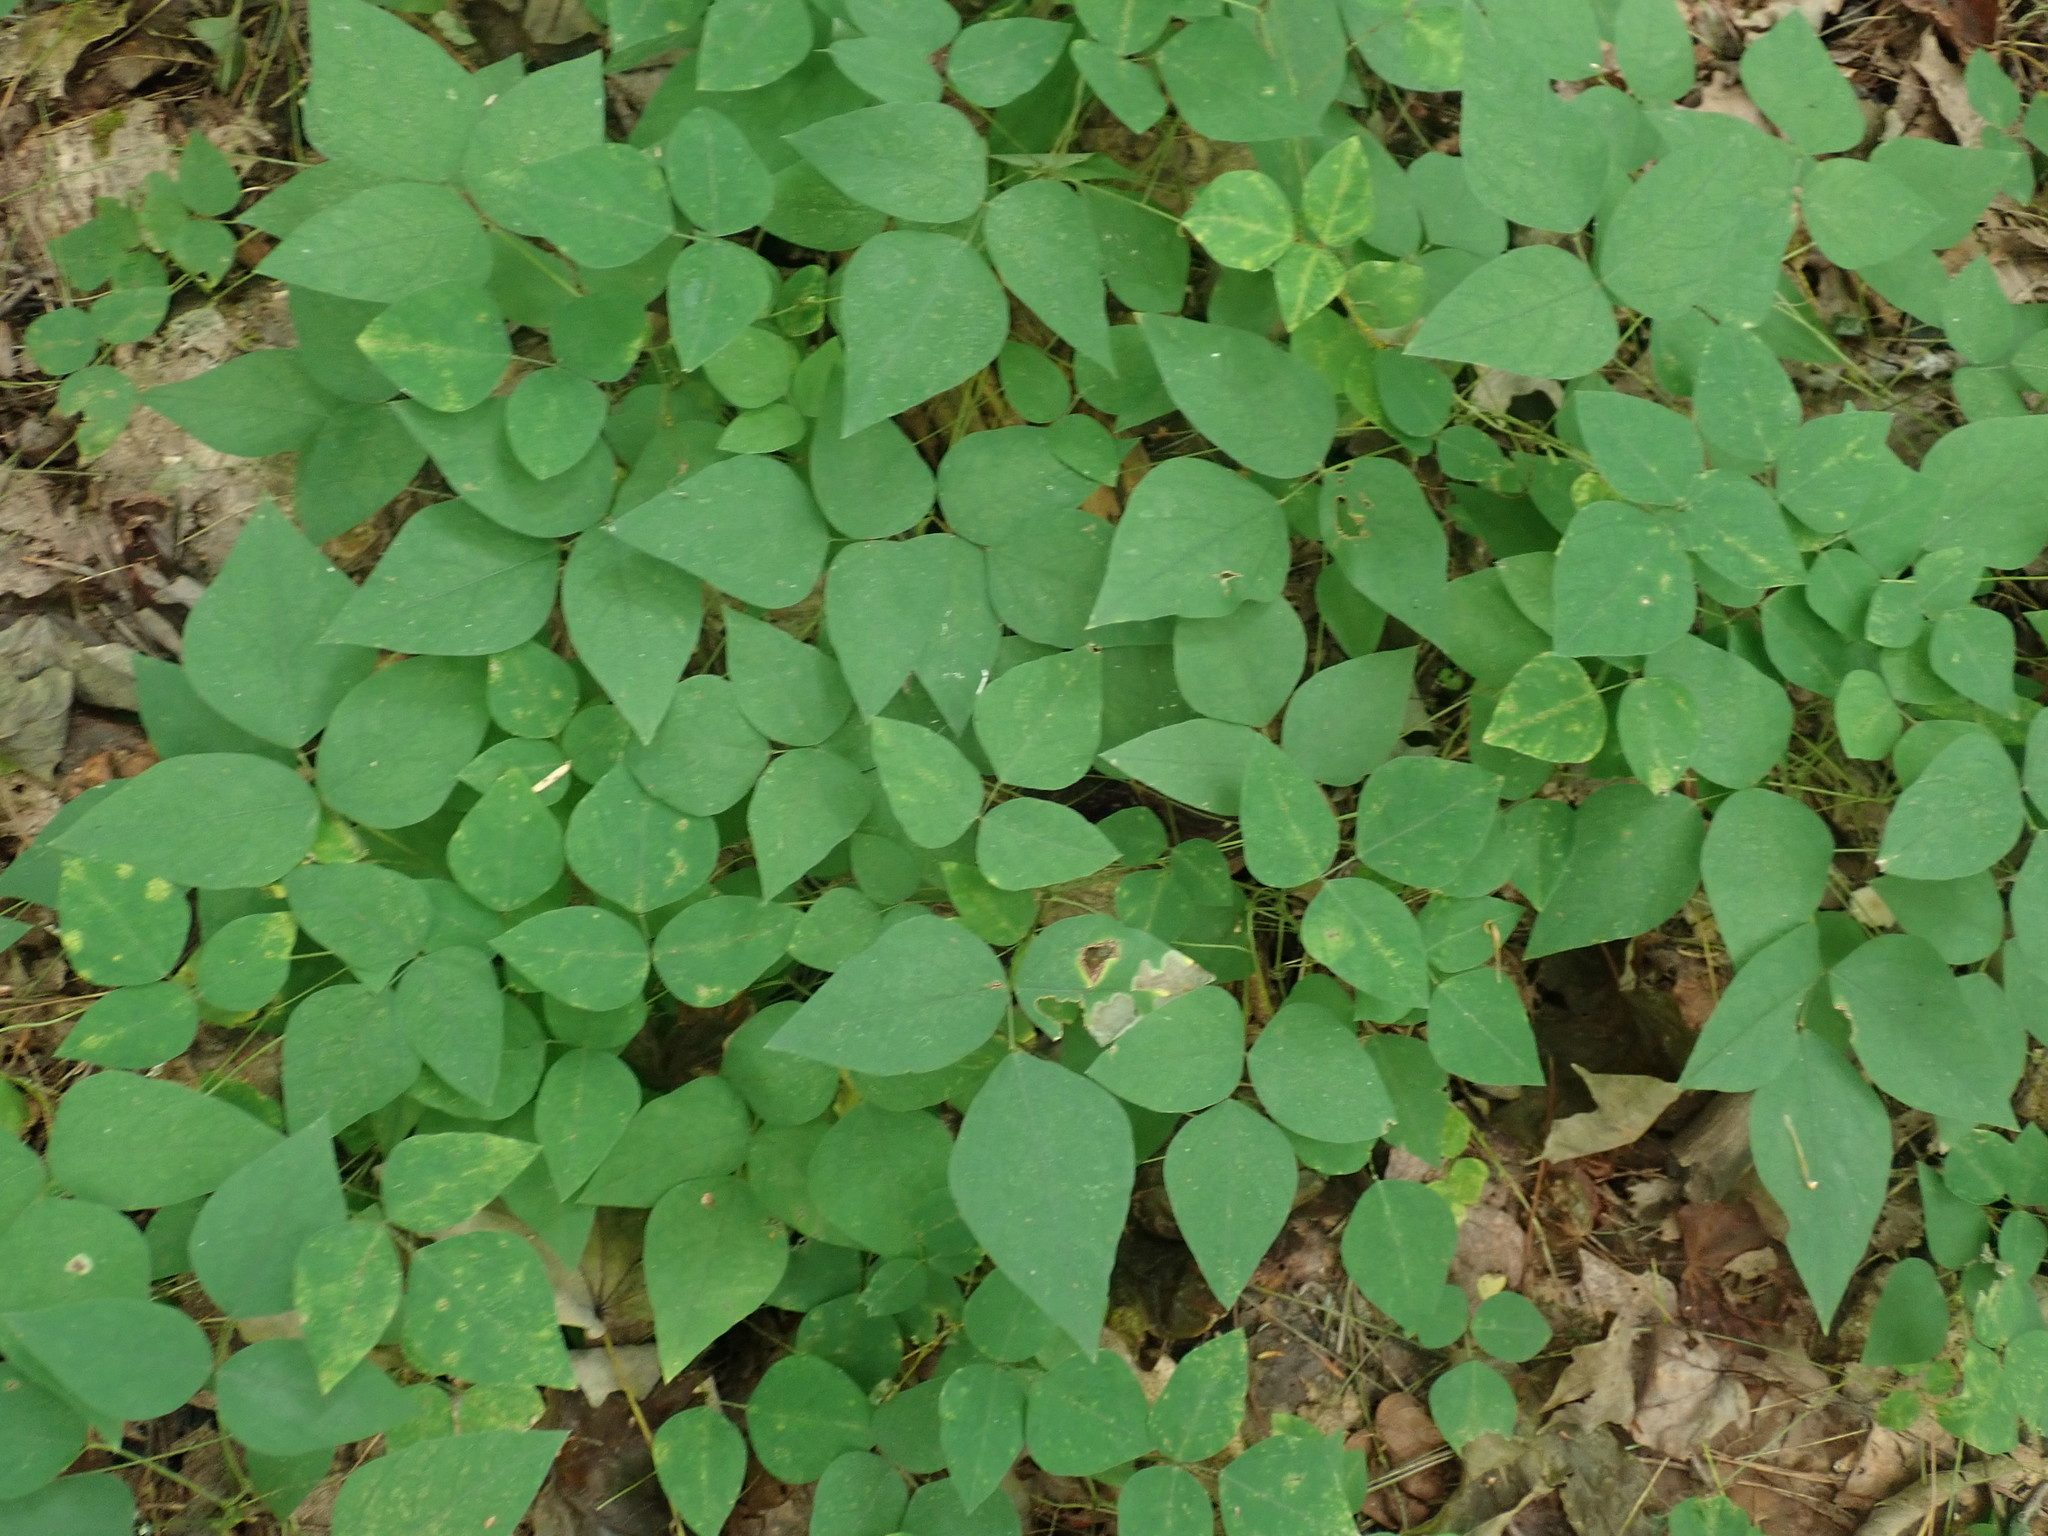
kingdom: Plantae
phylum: Tracheophyta
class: Magnoliopsida
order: Fabales
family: Fabaceae
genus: Amphicarpaea
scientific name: Amphicarpaea bracteata
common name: American hog peanut
